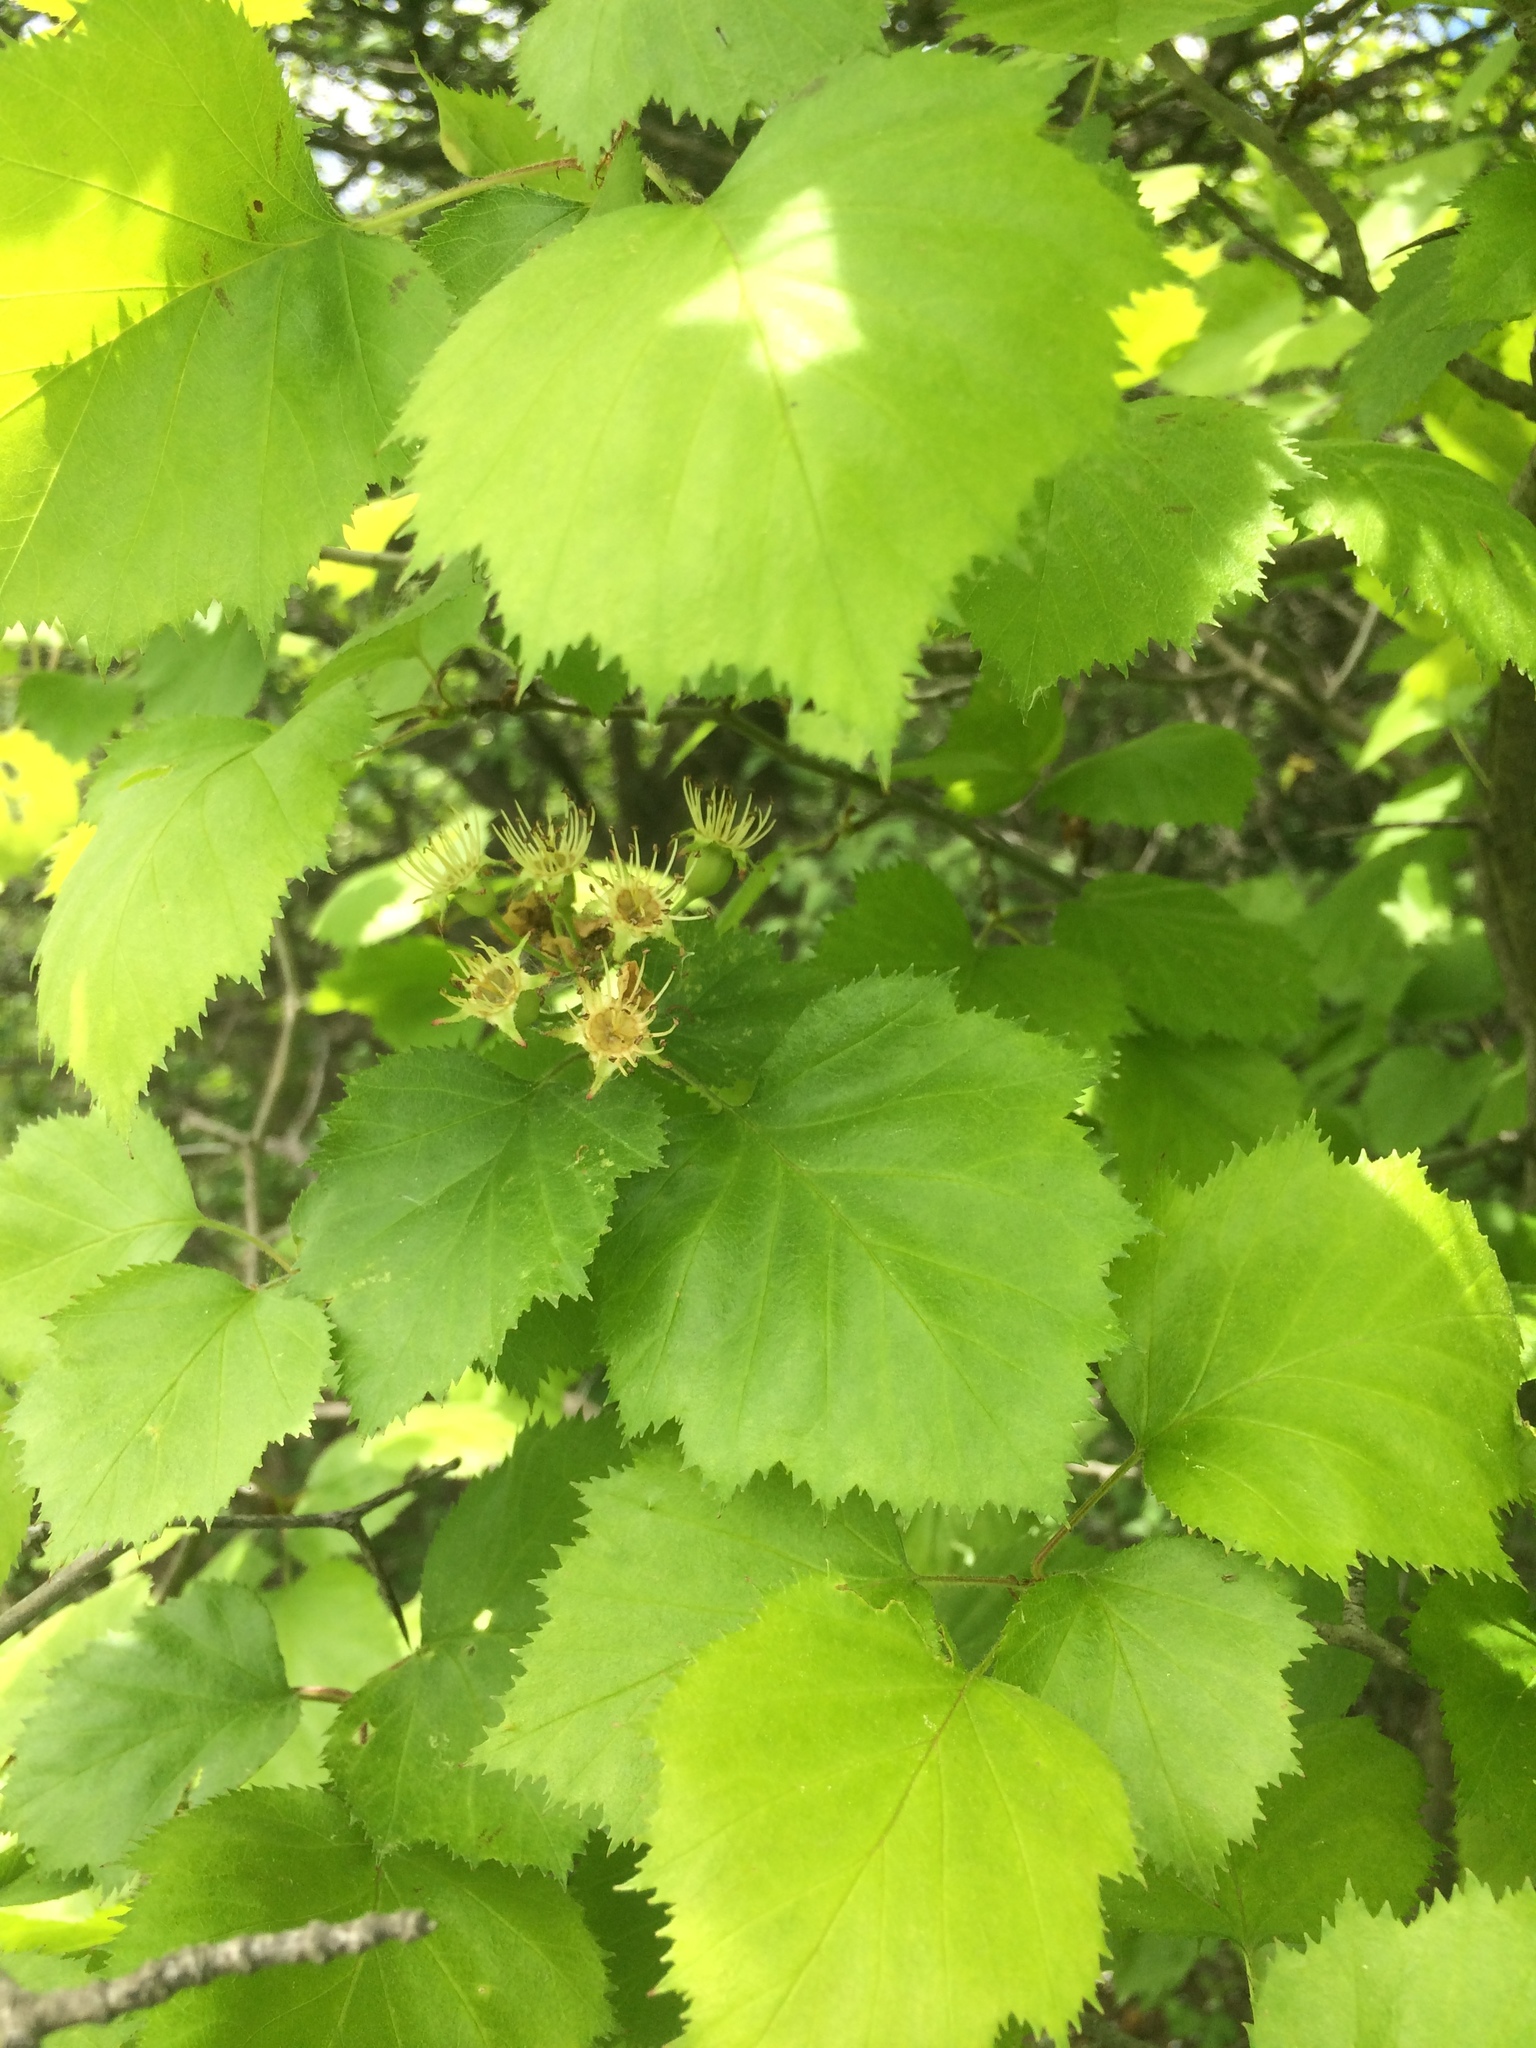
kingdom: Plantae
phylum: Tracheophyta
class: Magnoliopsida
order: Rosales
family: Rosaceae
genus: Crataegus
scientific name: Crataegus coccinioides
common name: Large-flowered cockspurthorn
